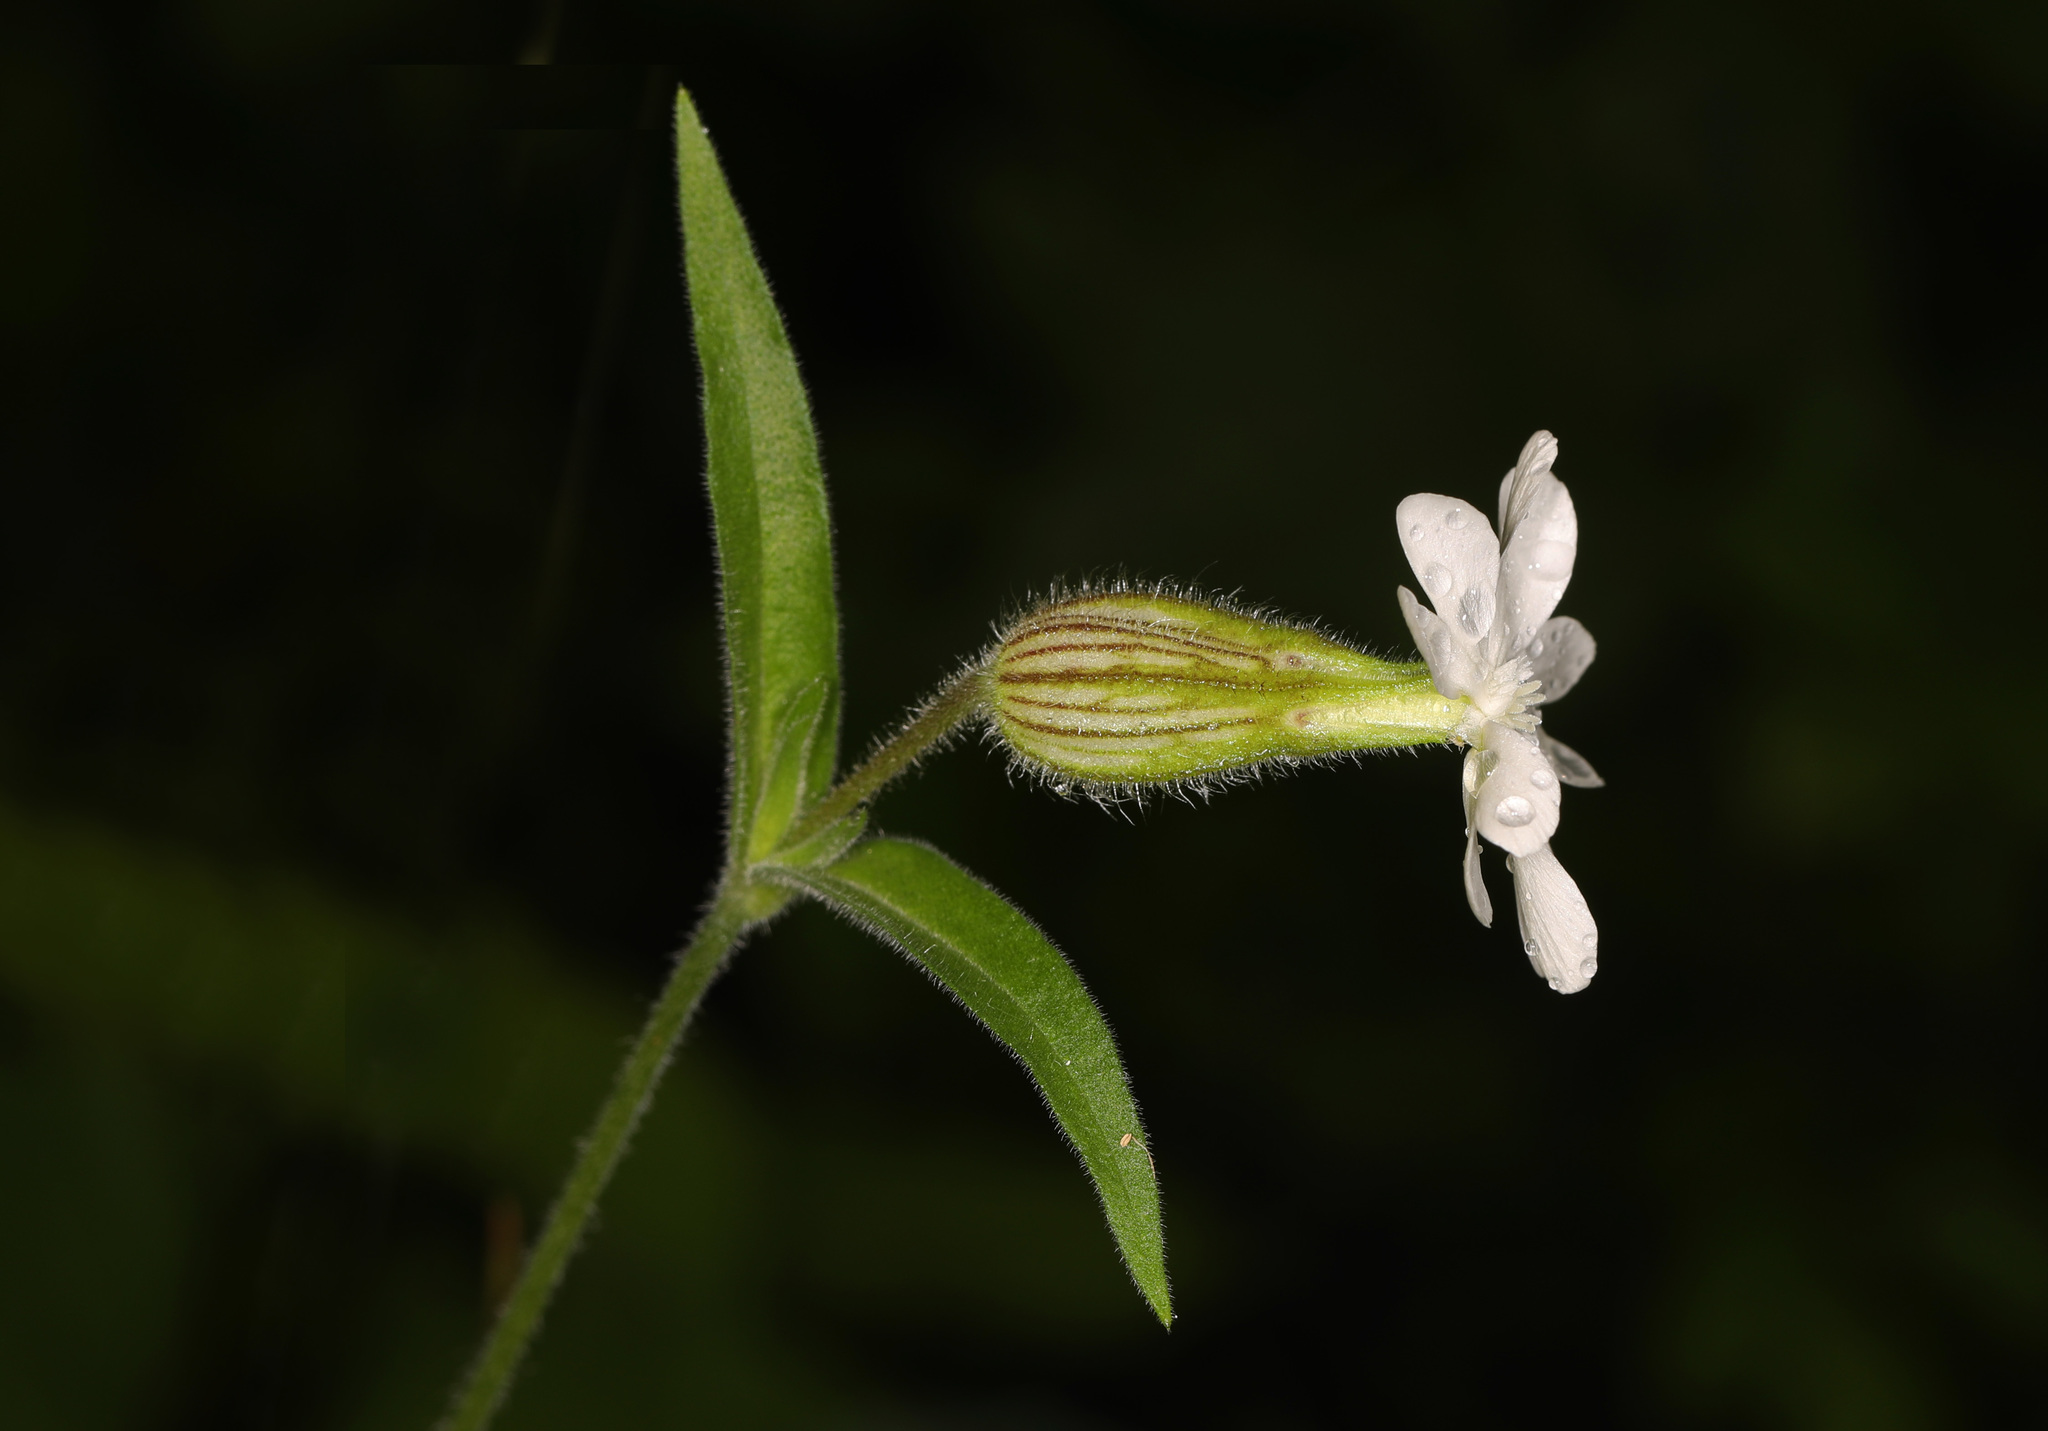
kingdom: Plantae
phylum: Tracheophyta
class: Magnoliopsida
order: Caryophyllales
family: Caryophyllaceae
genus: Silene
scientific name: Silene latifolia
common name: White campion
